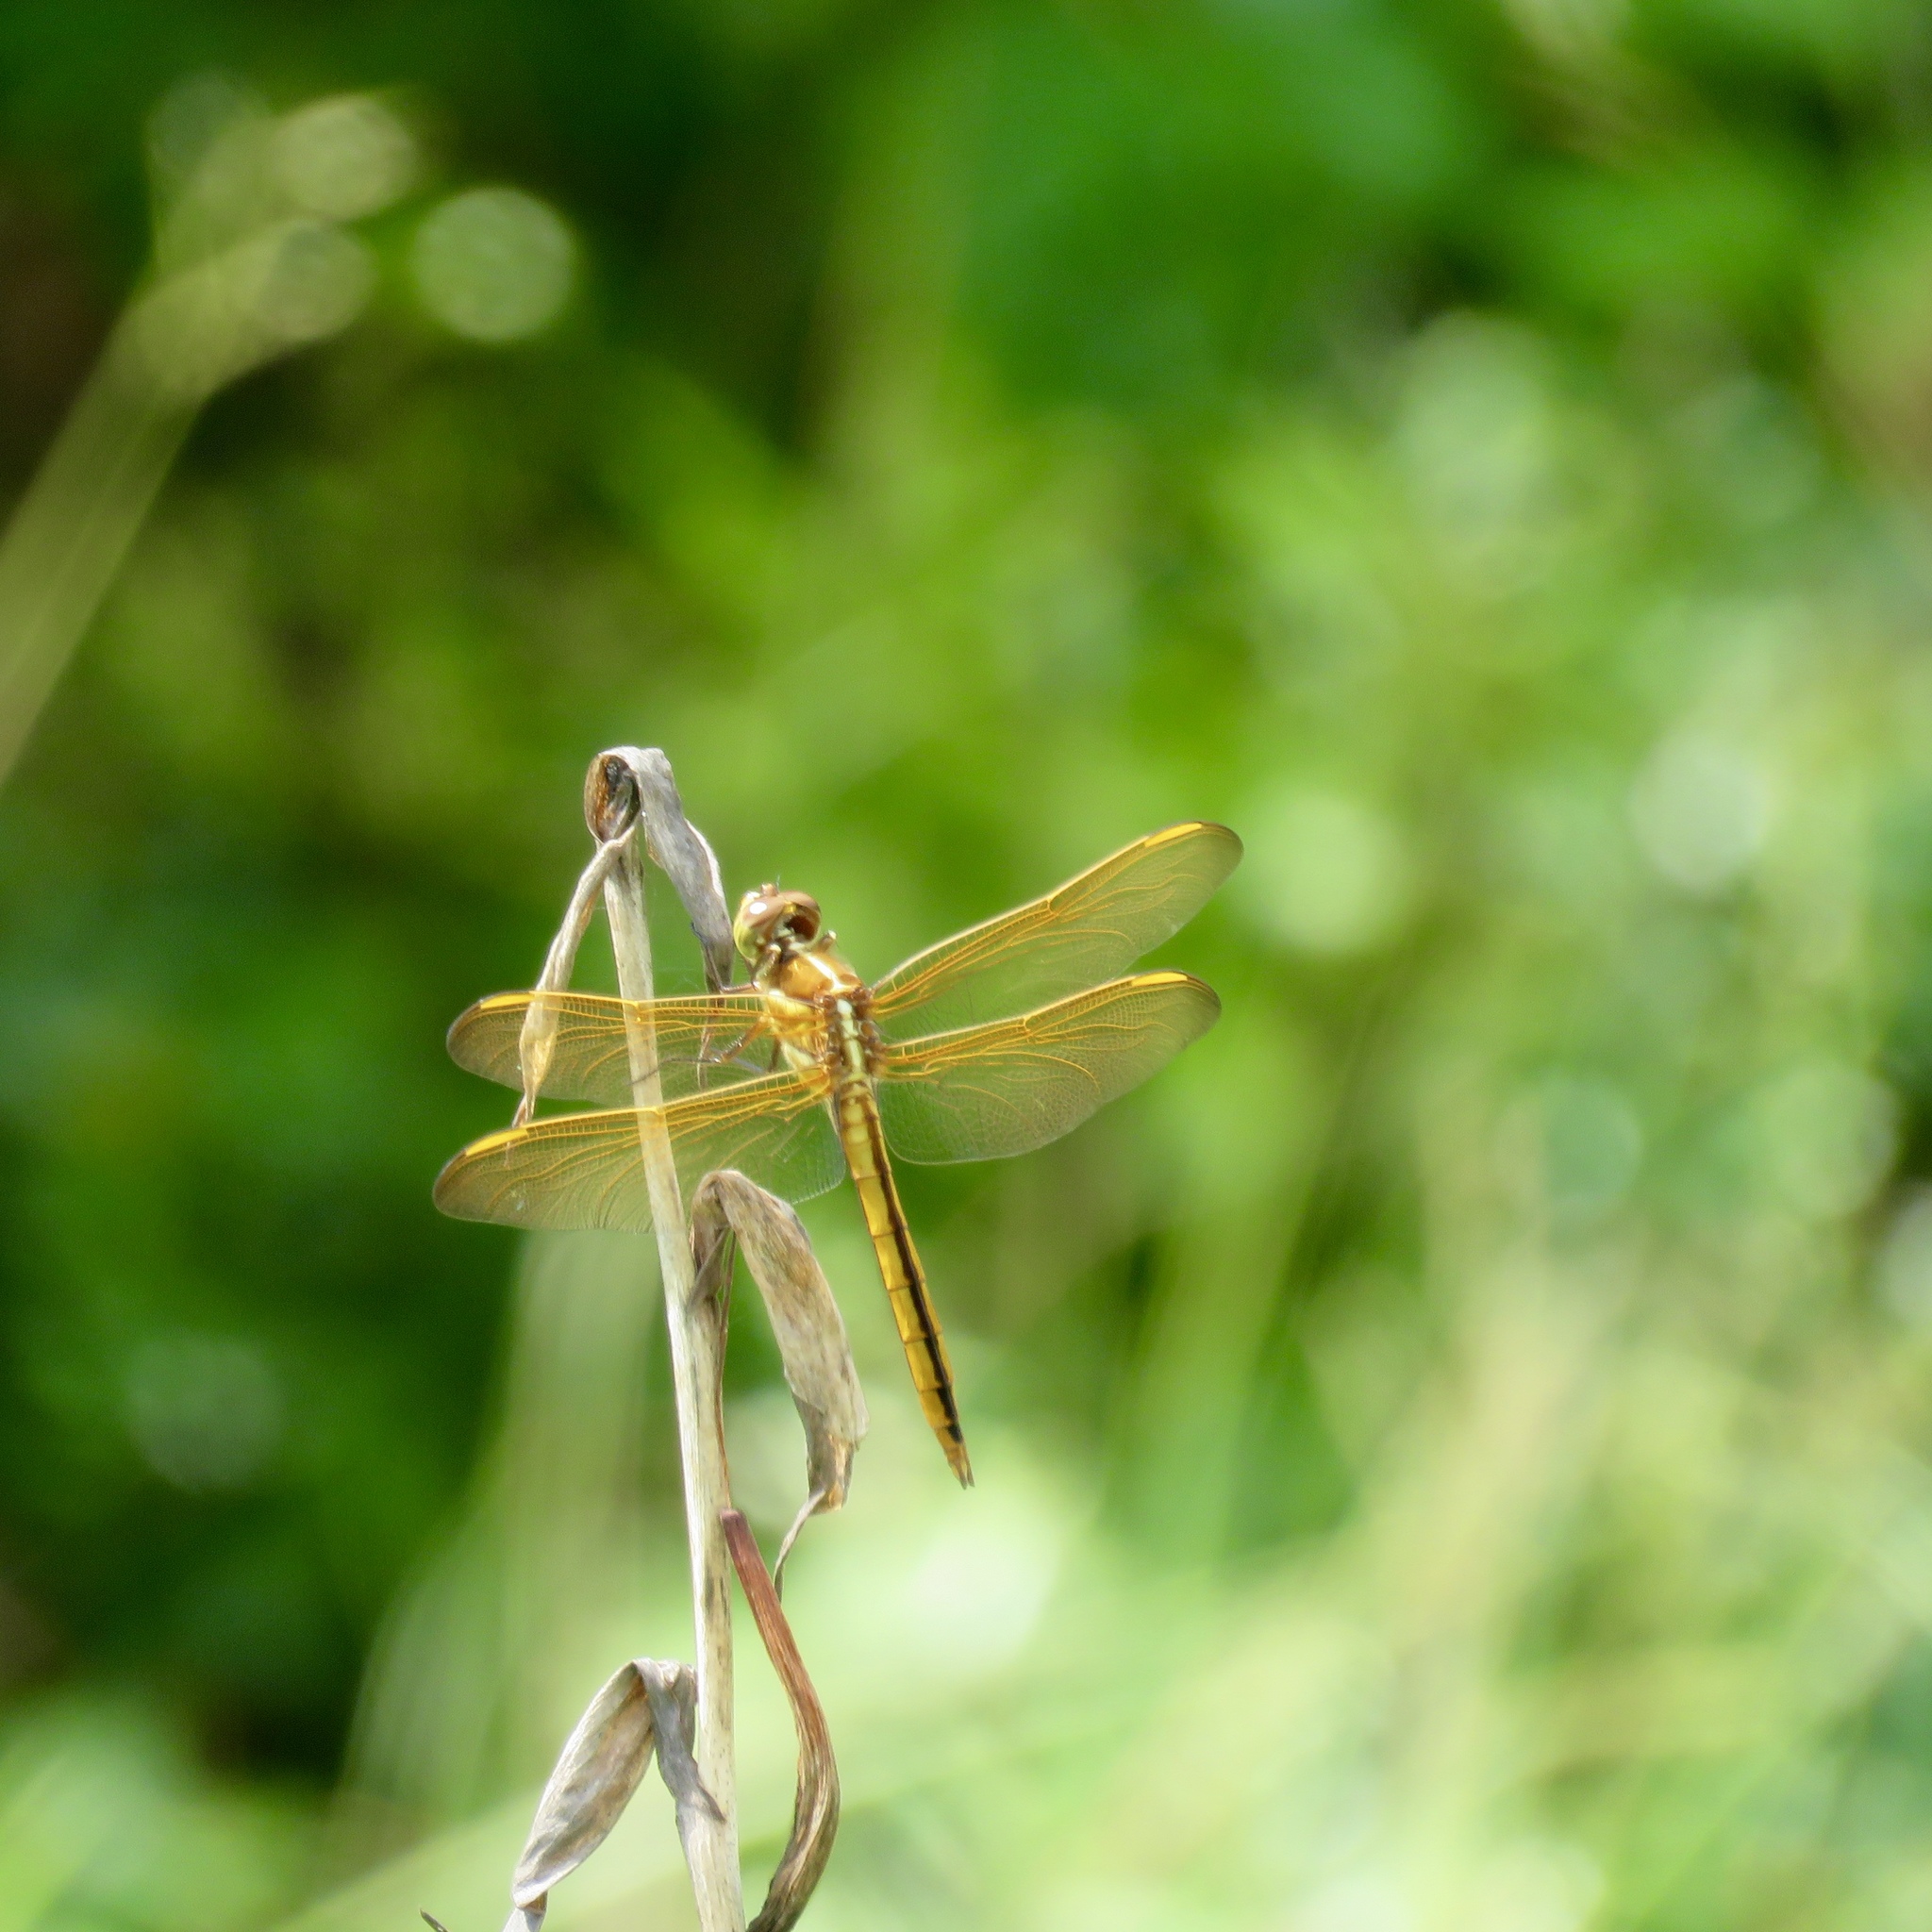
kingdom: Animalia
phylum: Arthropoda
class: Insecta
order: Odonata
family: Libellulidae
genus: Libellula
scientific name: Libellula auripennis
